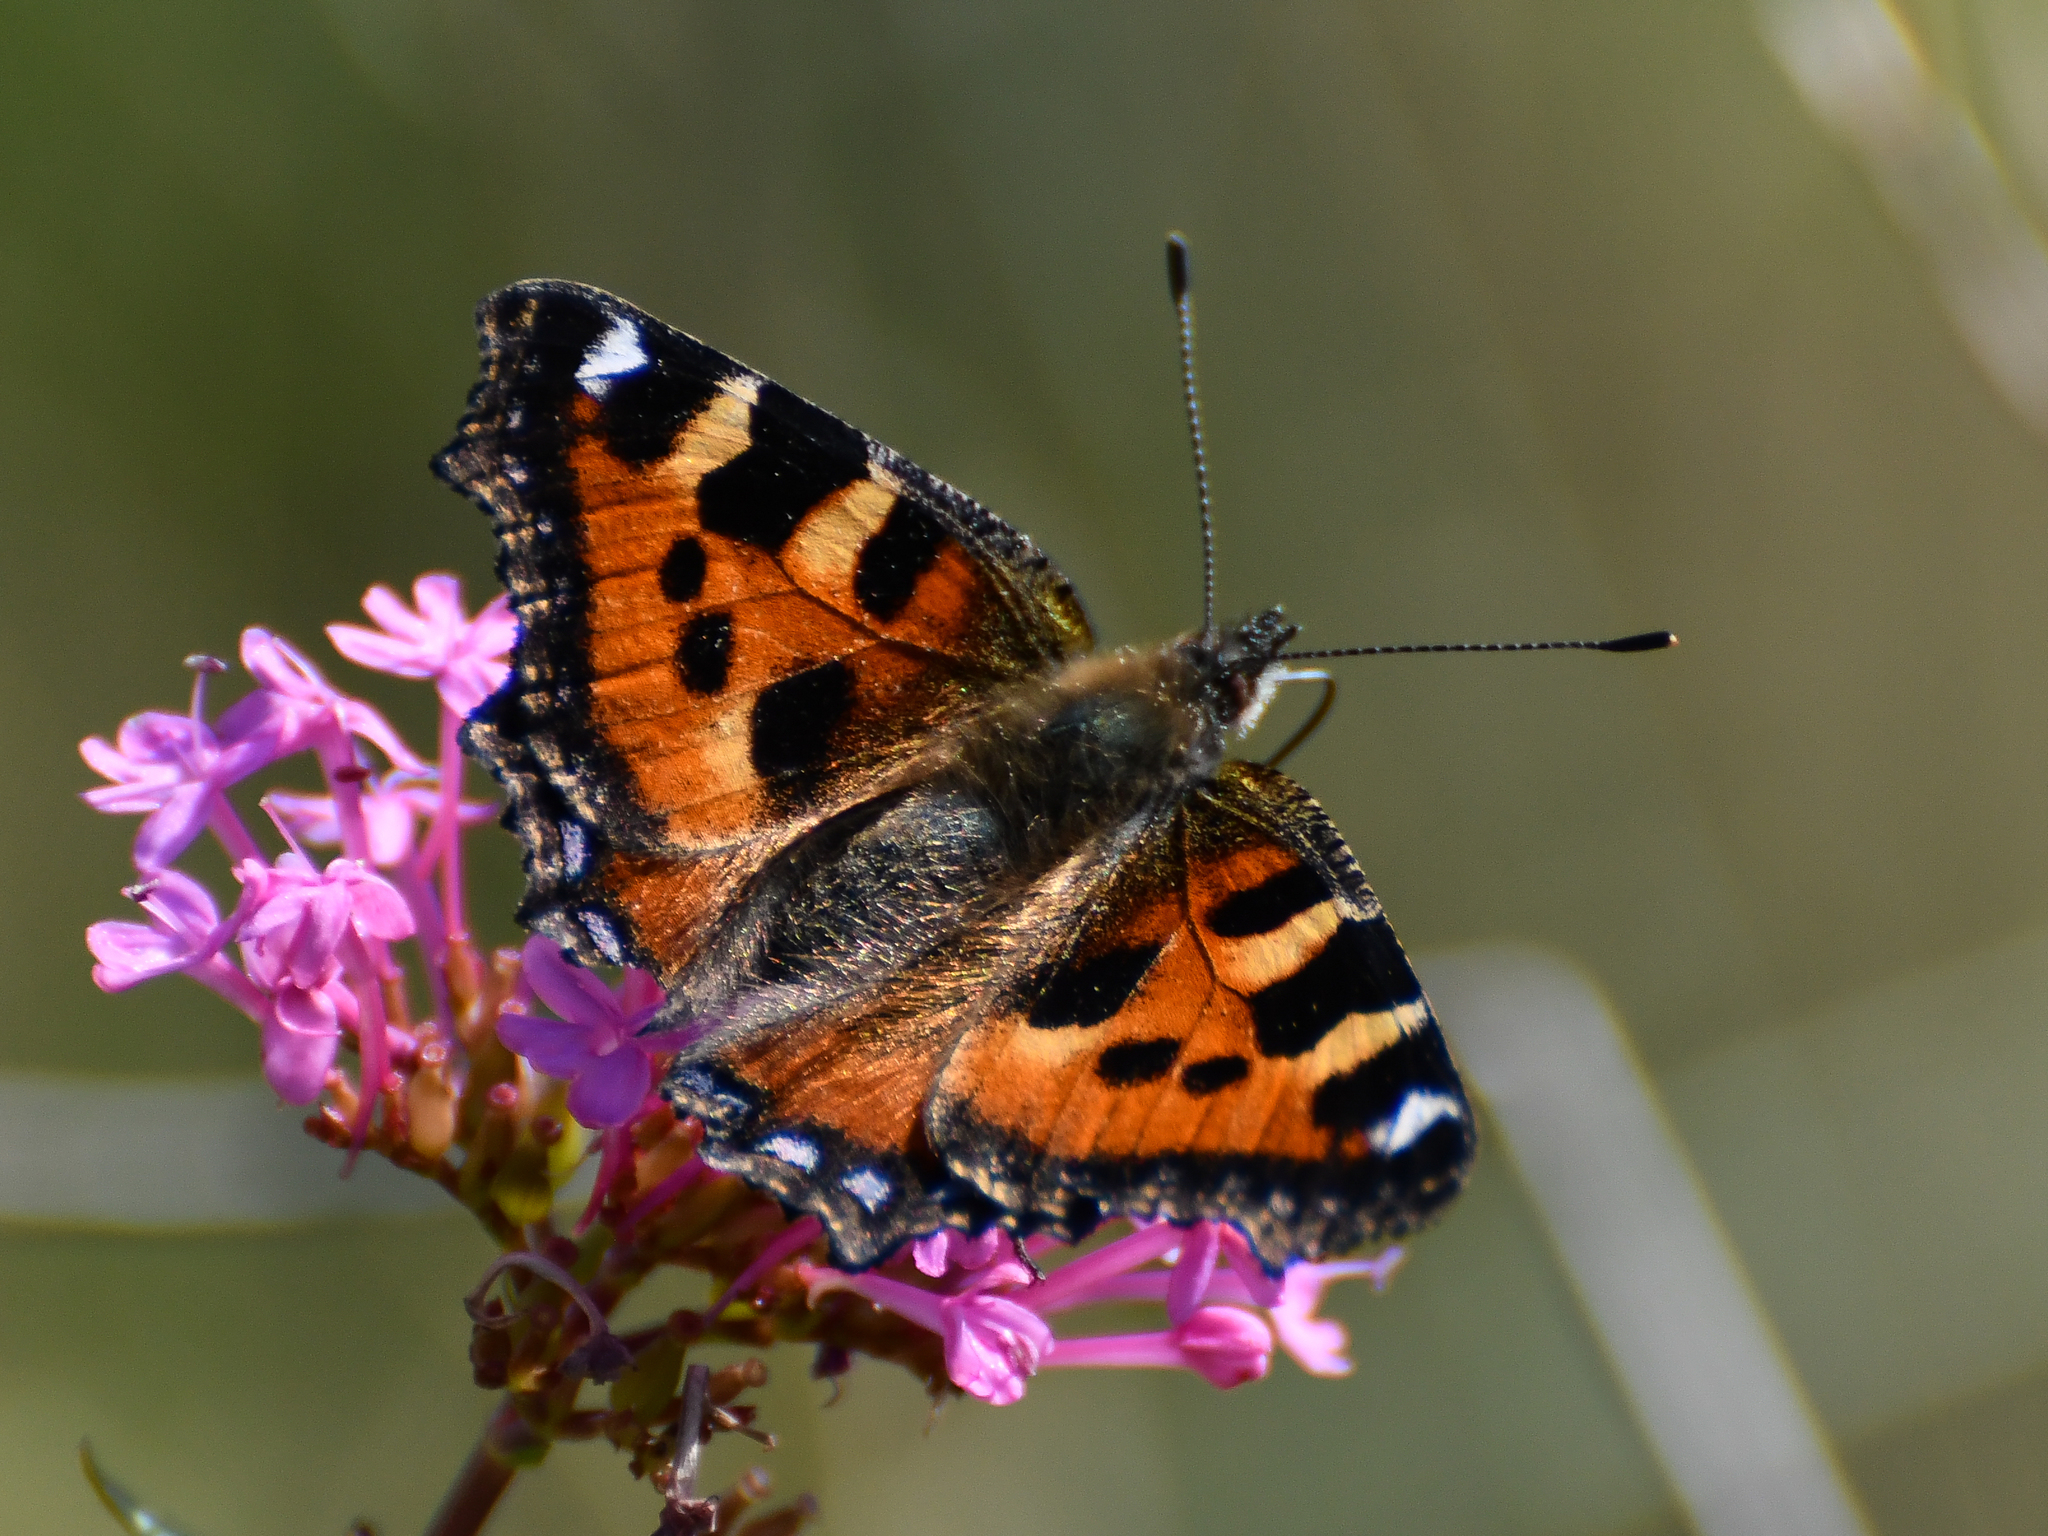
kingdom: Animalia
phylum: Arthropoda
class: Insecta
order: Lepidoptera
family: Nymphalidae
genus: Aglais
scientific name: Aglais urticae
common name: Small tortoiseshell
